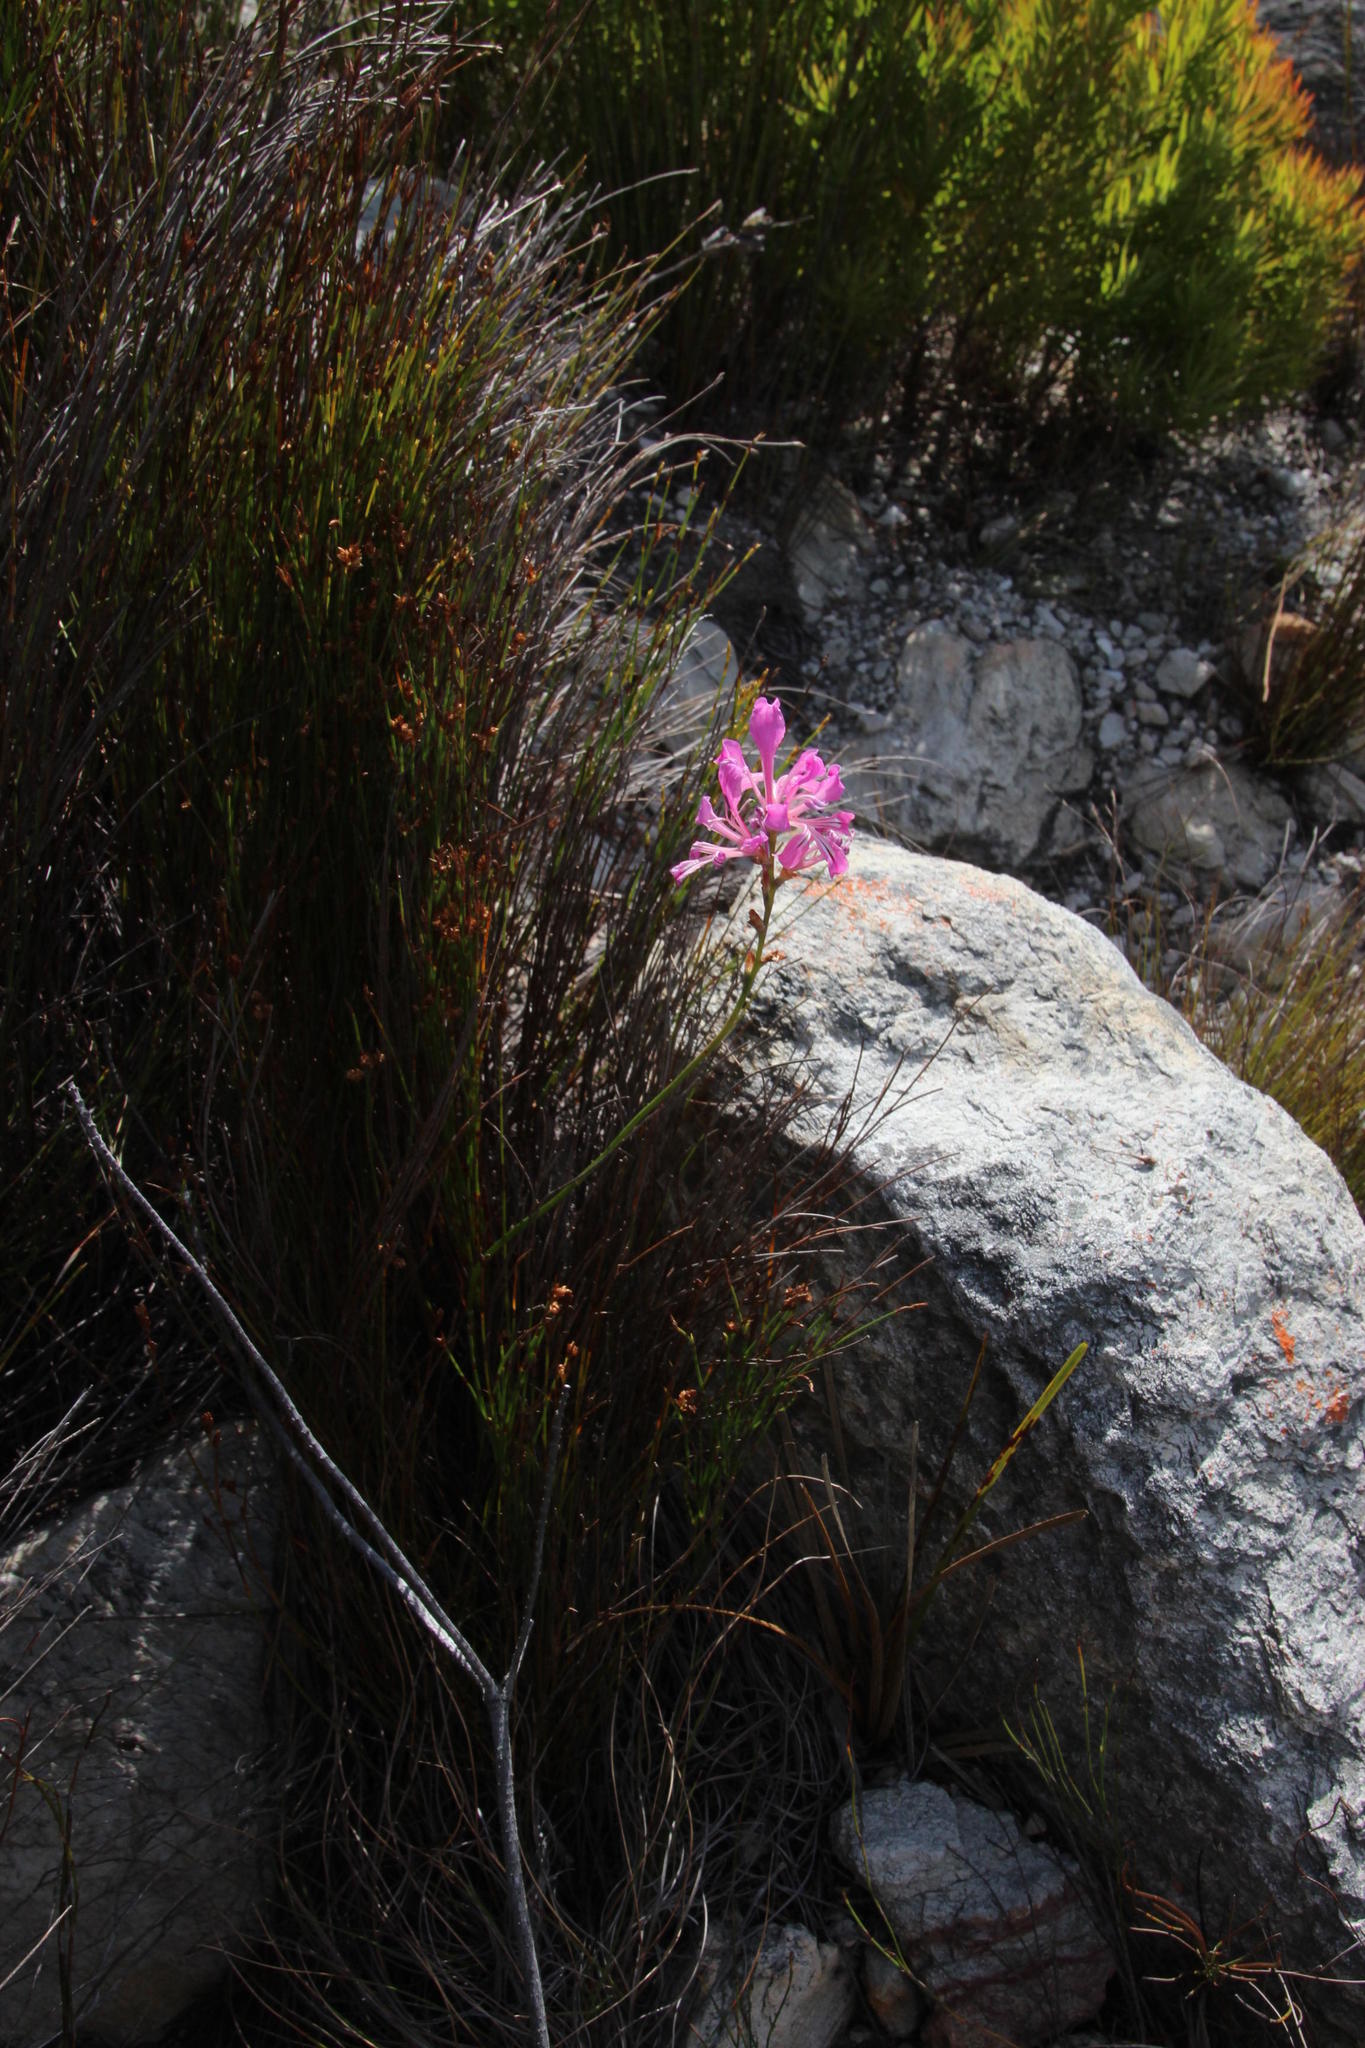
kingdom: Plantae
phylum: Tracheophyta
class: Liliopsida
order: Asparagales
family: Iridaceae
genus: Tritoniopsis
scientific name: Tritoniopsis lata
